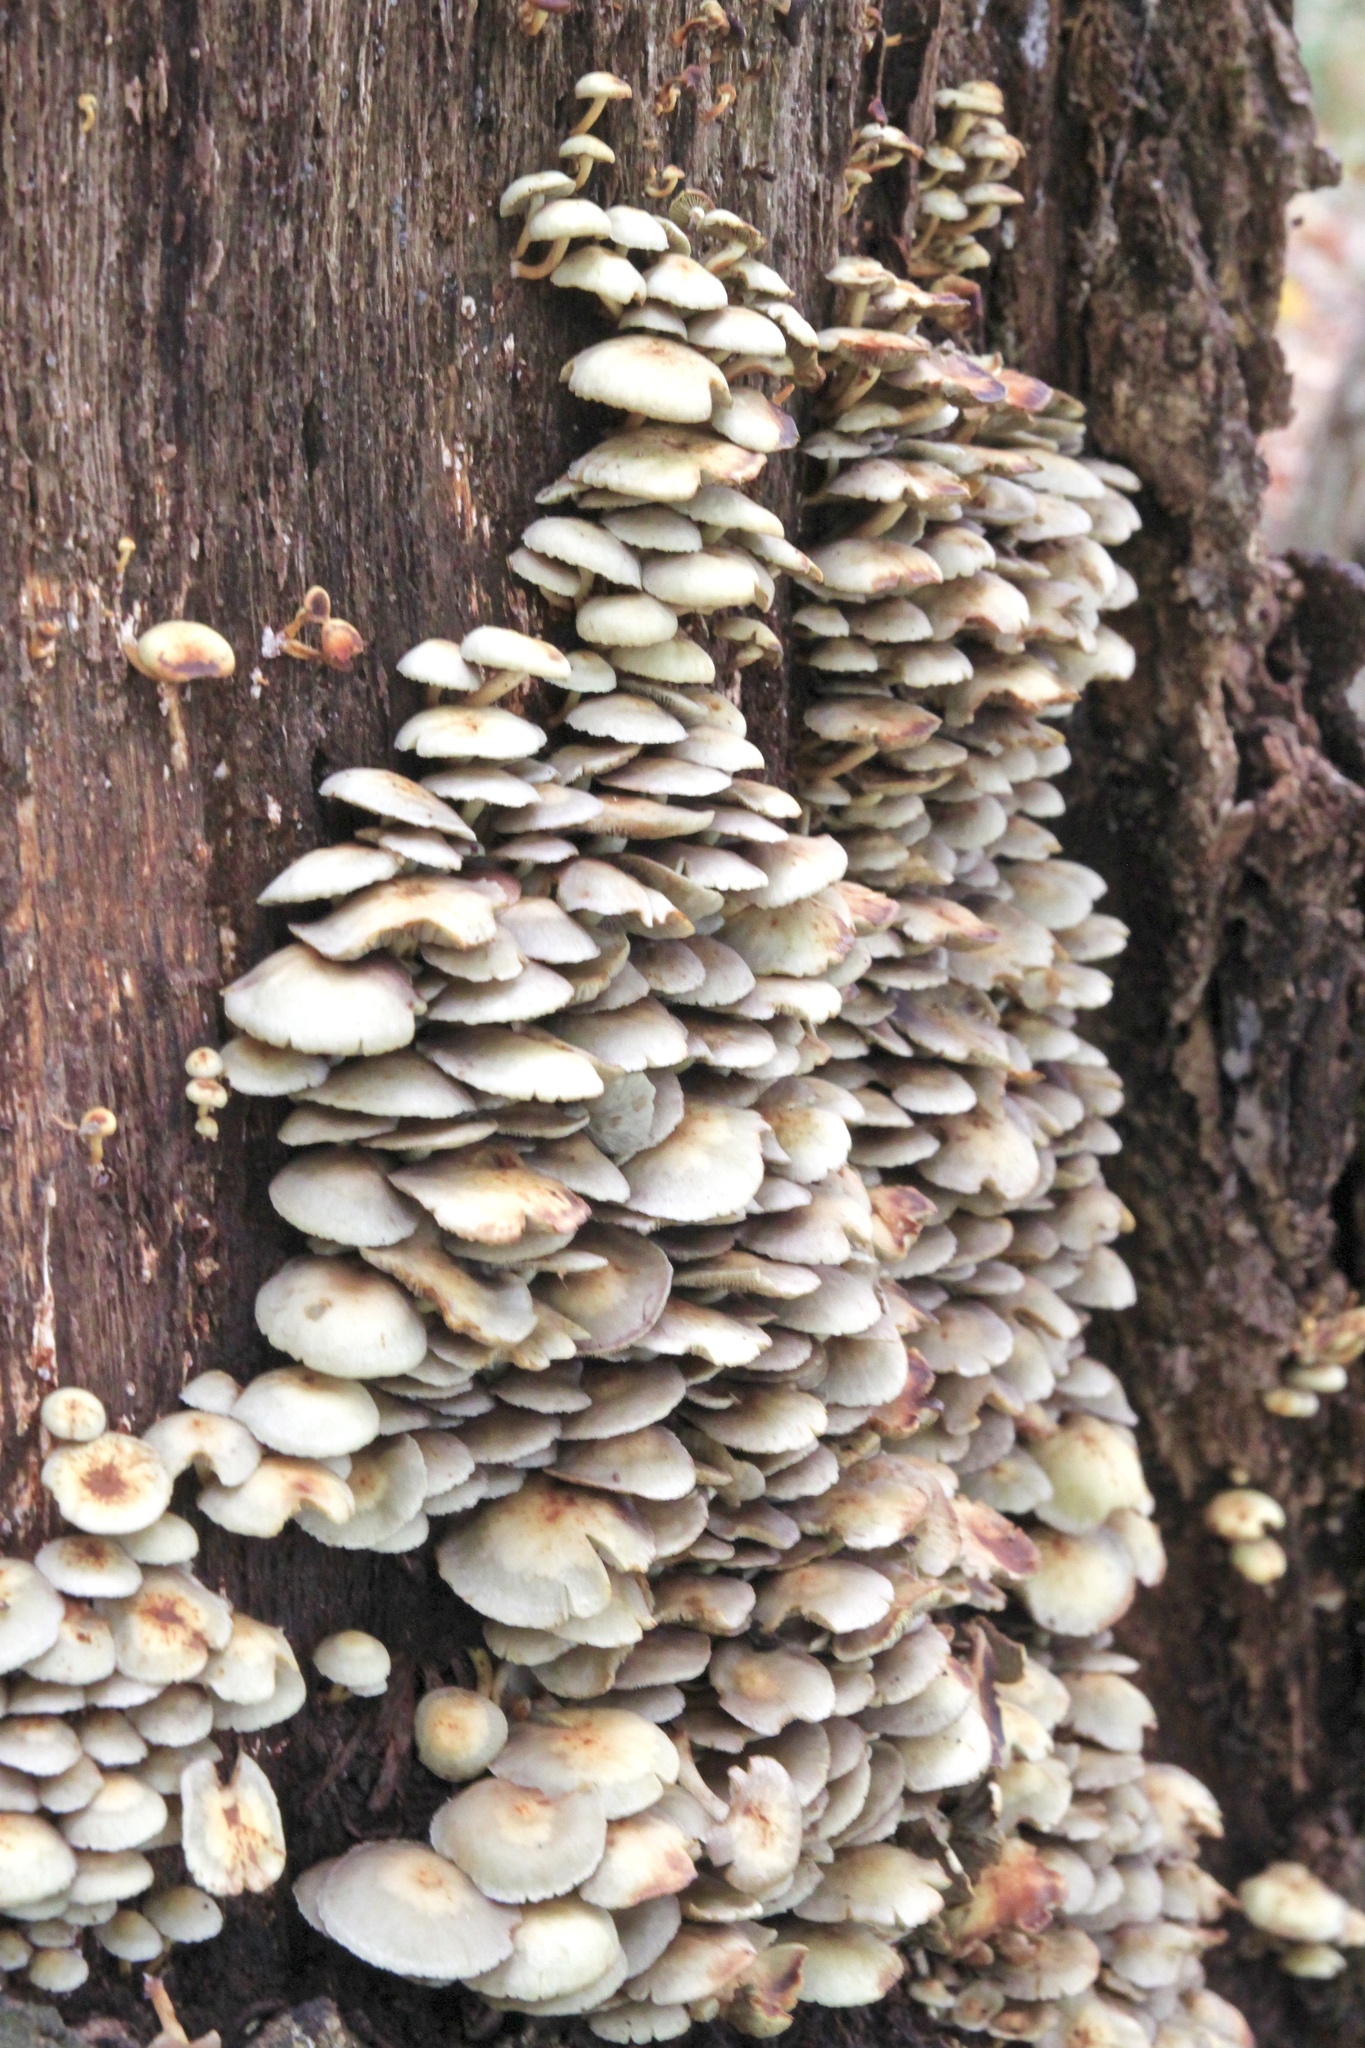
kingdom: Fungi
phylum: Basidiomycota
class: Agaricomycetes
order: Agaricales
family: Strophariaceae
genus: Hypholoma
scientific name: Hypholoma fasciculare
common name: Sulphur tuft
